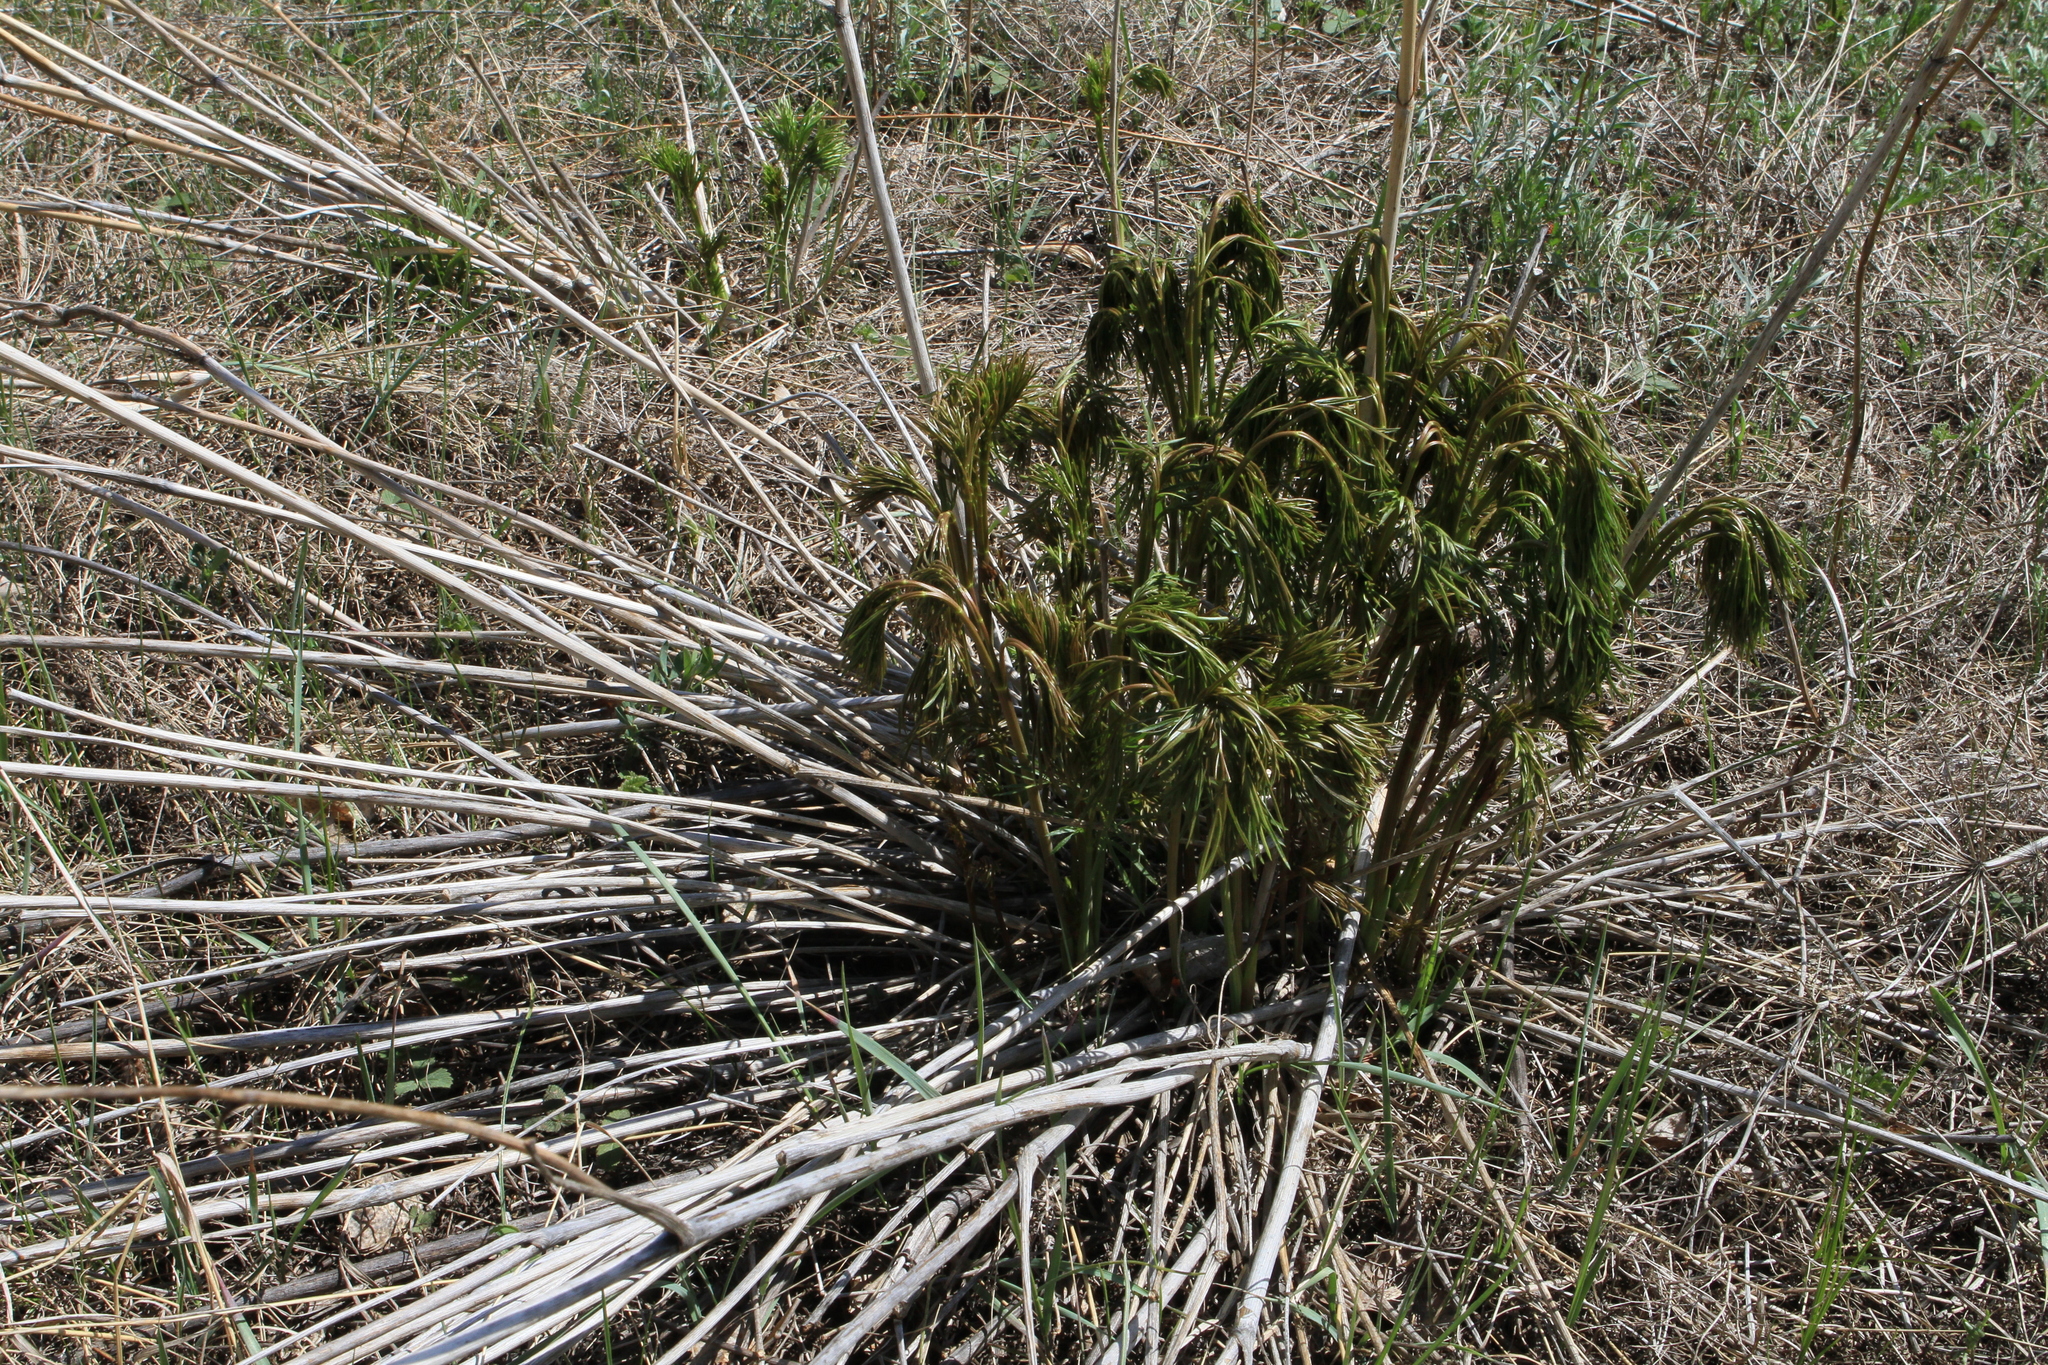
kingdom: Plantae
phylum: Tracheophyta
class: Magnoliopsida
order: Apiales
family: Apiaceae
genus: Peucedanum
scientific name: Peucedanum morisonii
